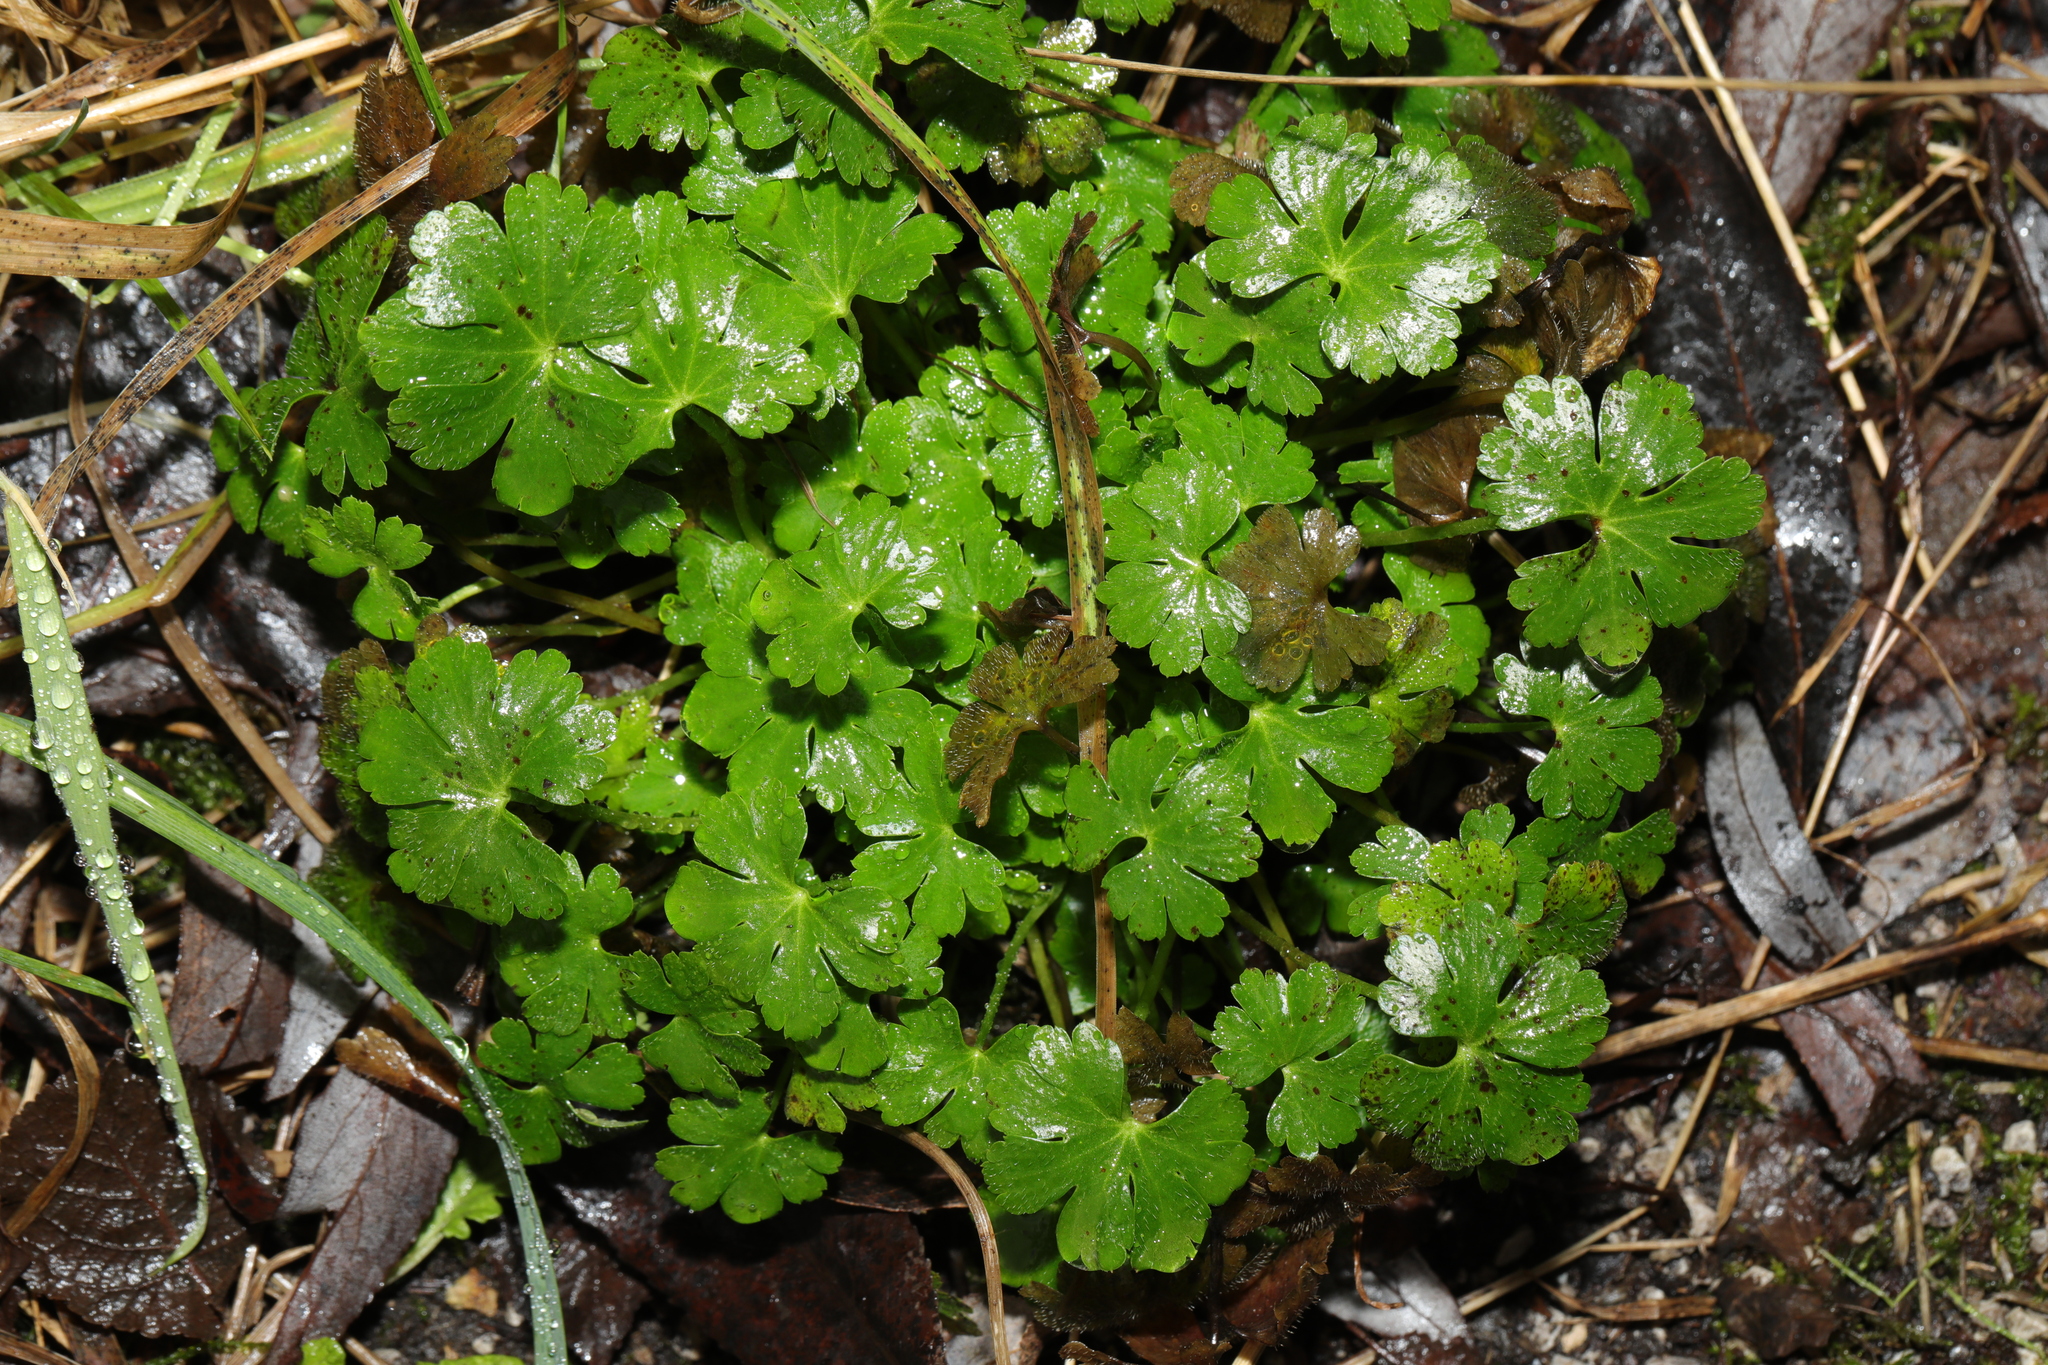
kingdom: Plantae
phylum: Tracheophyta
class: Magnoliopsida
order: Geraniales
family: Geraniaceae
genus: Geranium
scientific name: Geranium lucidum
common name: Shining crane's-bill
